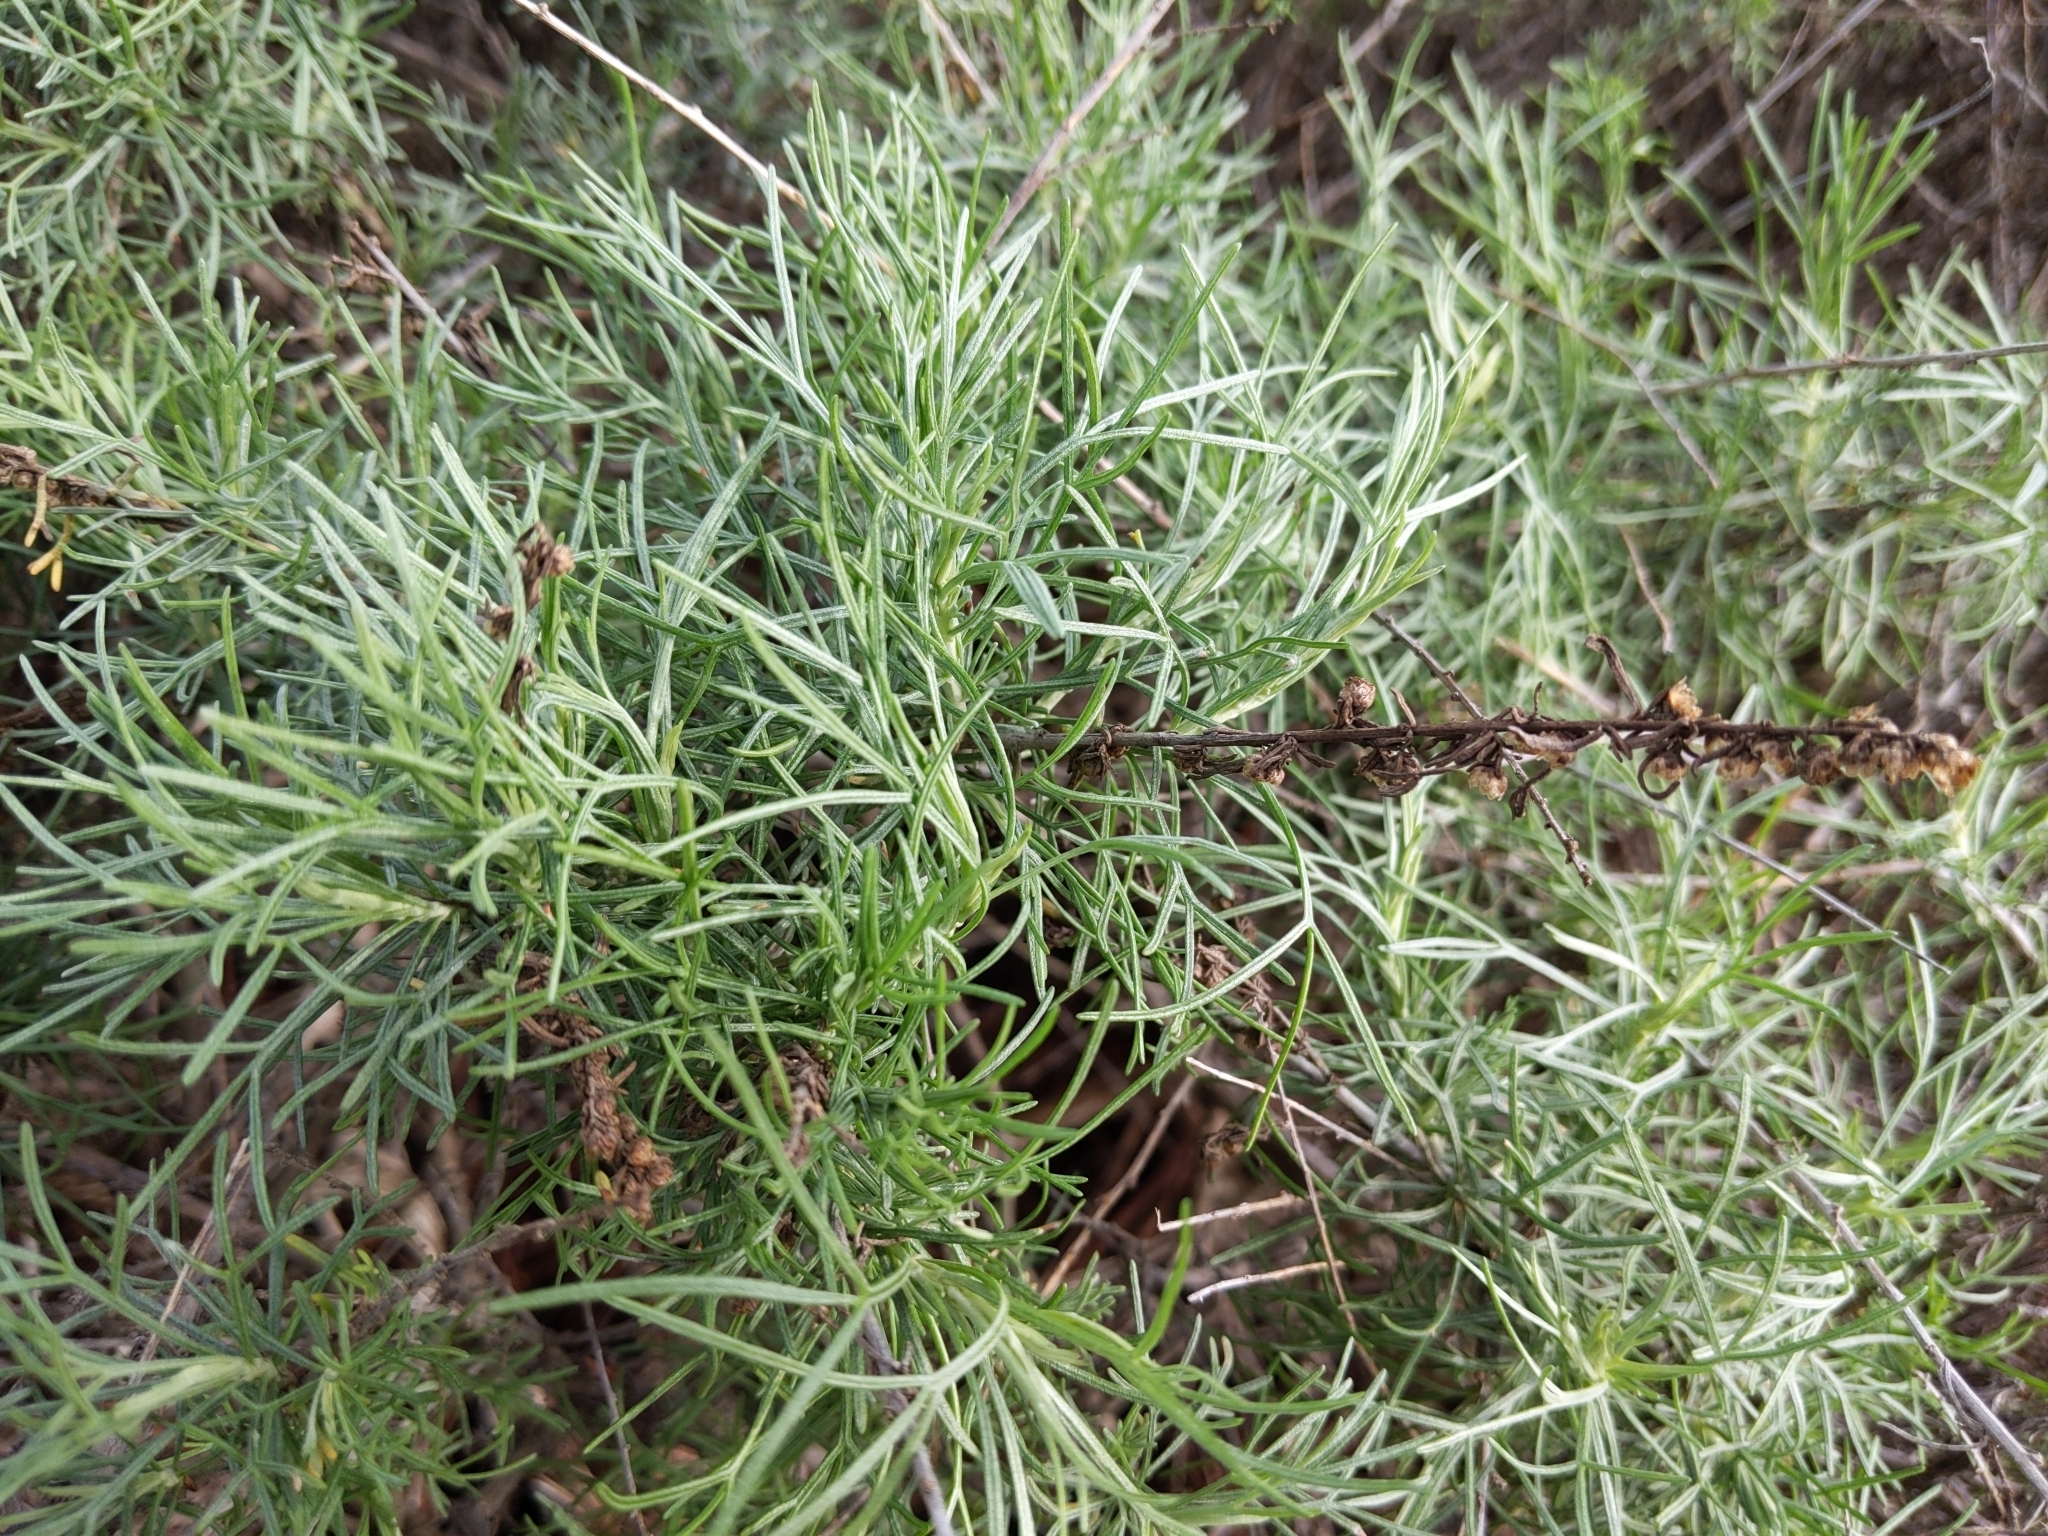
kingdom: Plantae
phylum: Tracheophyta
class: Magnoliopsida
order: Asterales
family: Asteraceae
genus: Artemisia
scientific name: Artemisia californica
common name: California sagebrush
